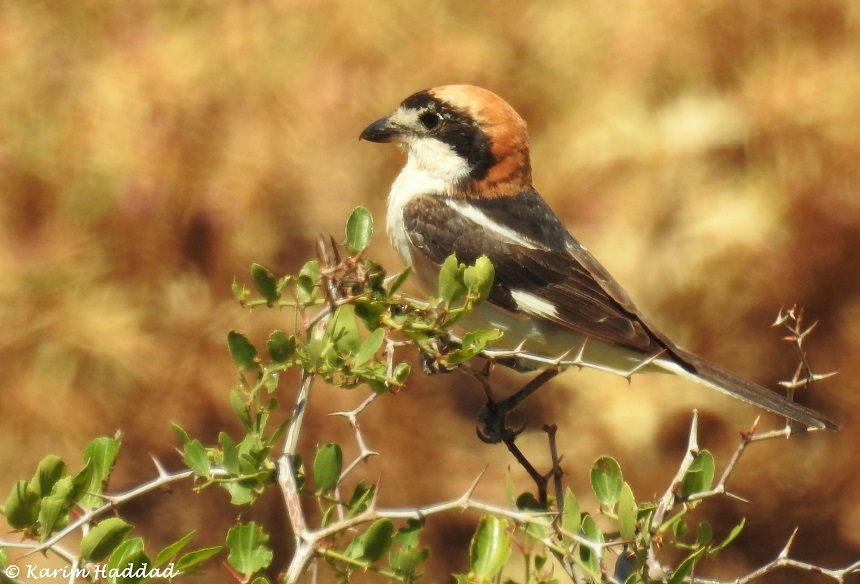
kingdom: Animalia
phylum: Chordata
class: Aves
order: Passeriformes
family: Laniidae
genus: Lanius
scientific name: Lanius senator
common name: Woodchat shrike
